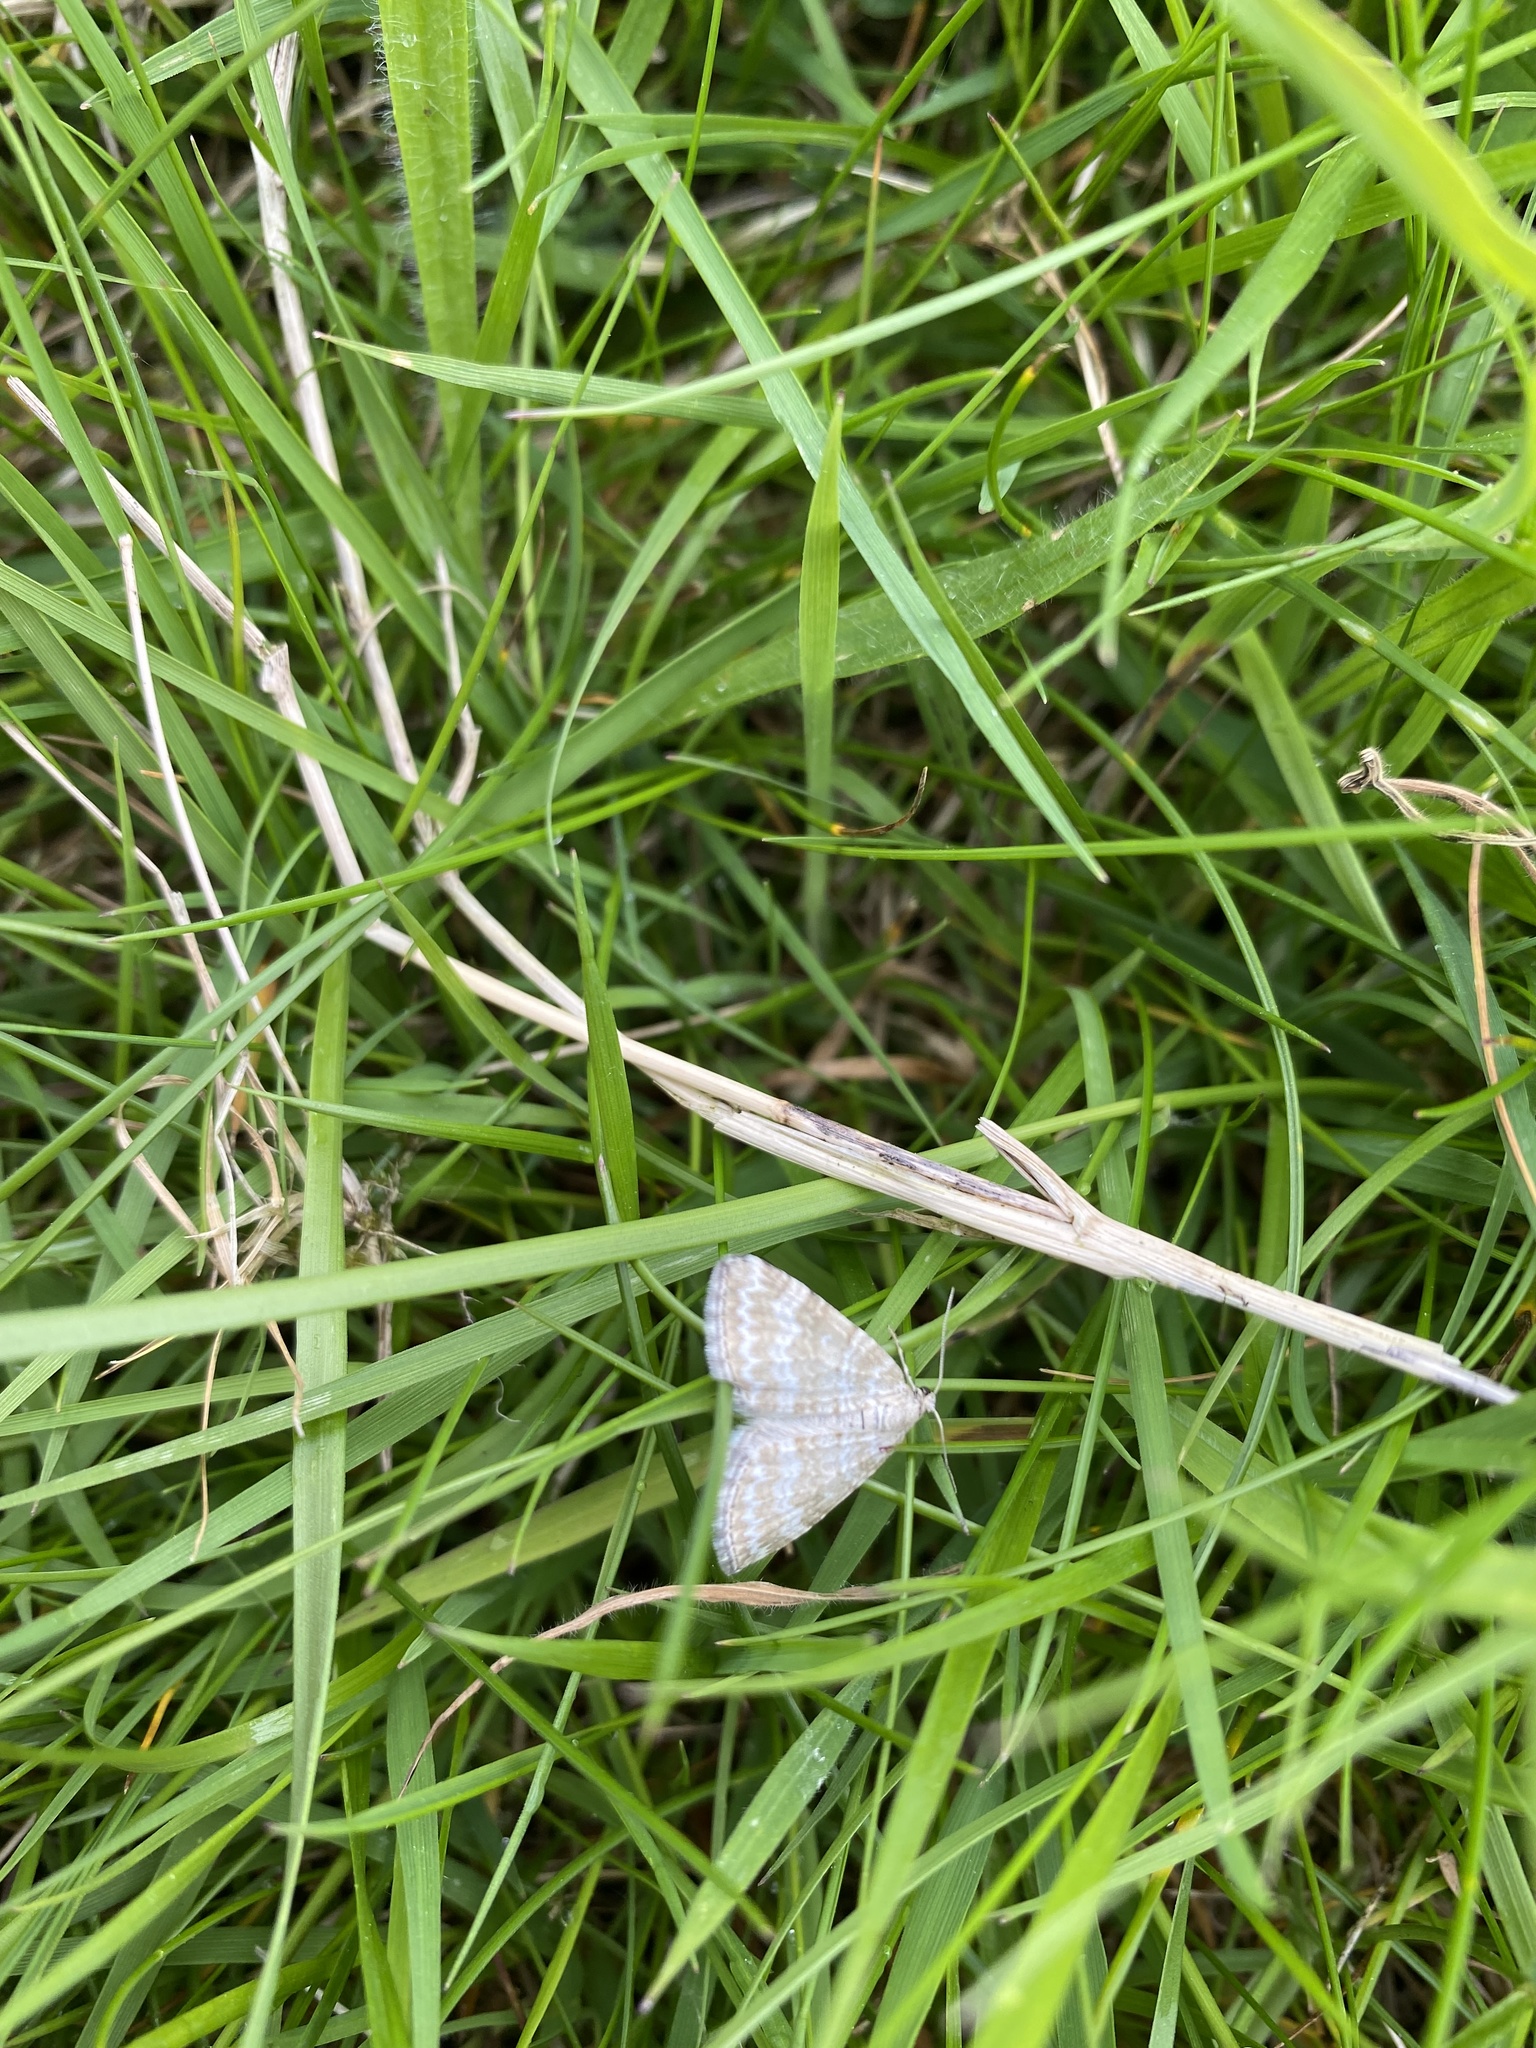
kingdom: Animalia
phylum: Arthropoda
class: Insecta
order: Lepidoptera
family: Geometridae
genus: Perizoma
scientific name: Perizoma albulata
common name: Grass rivulet
